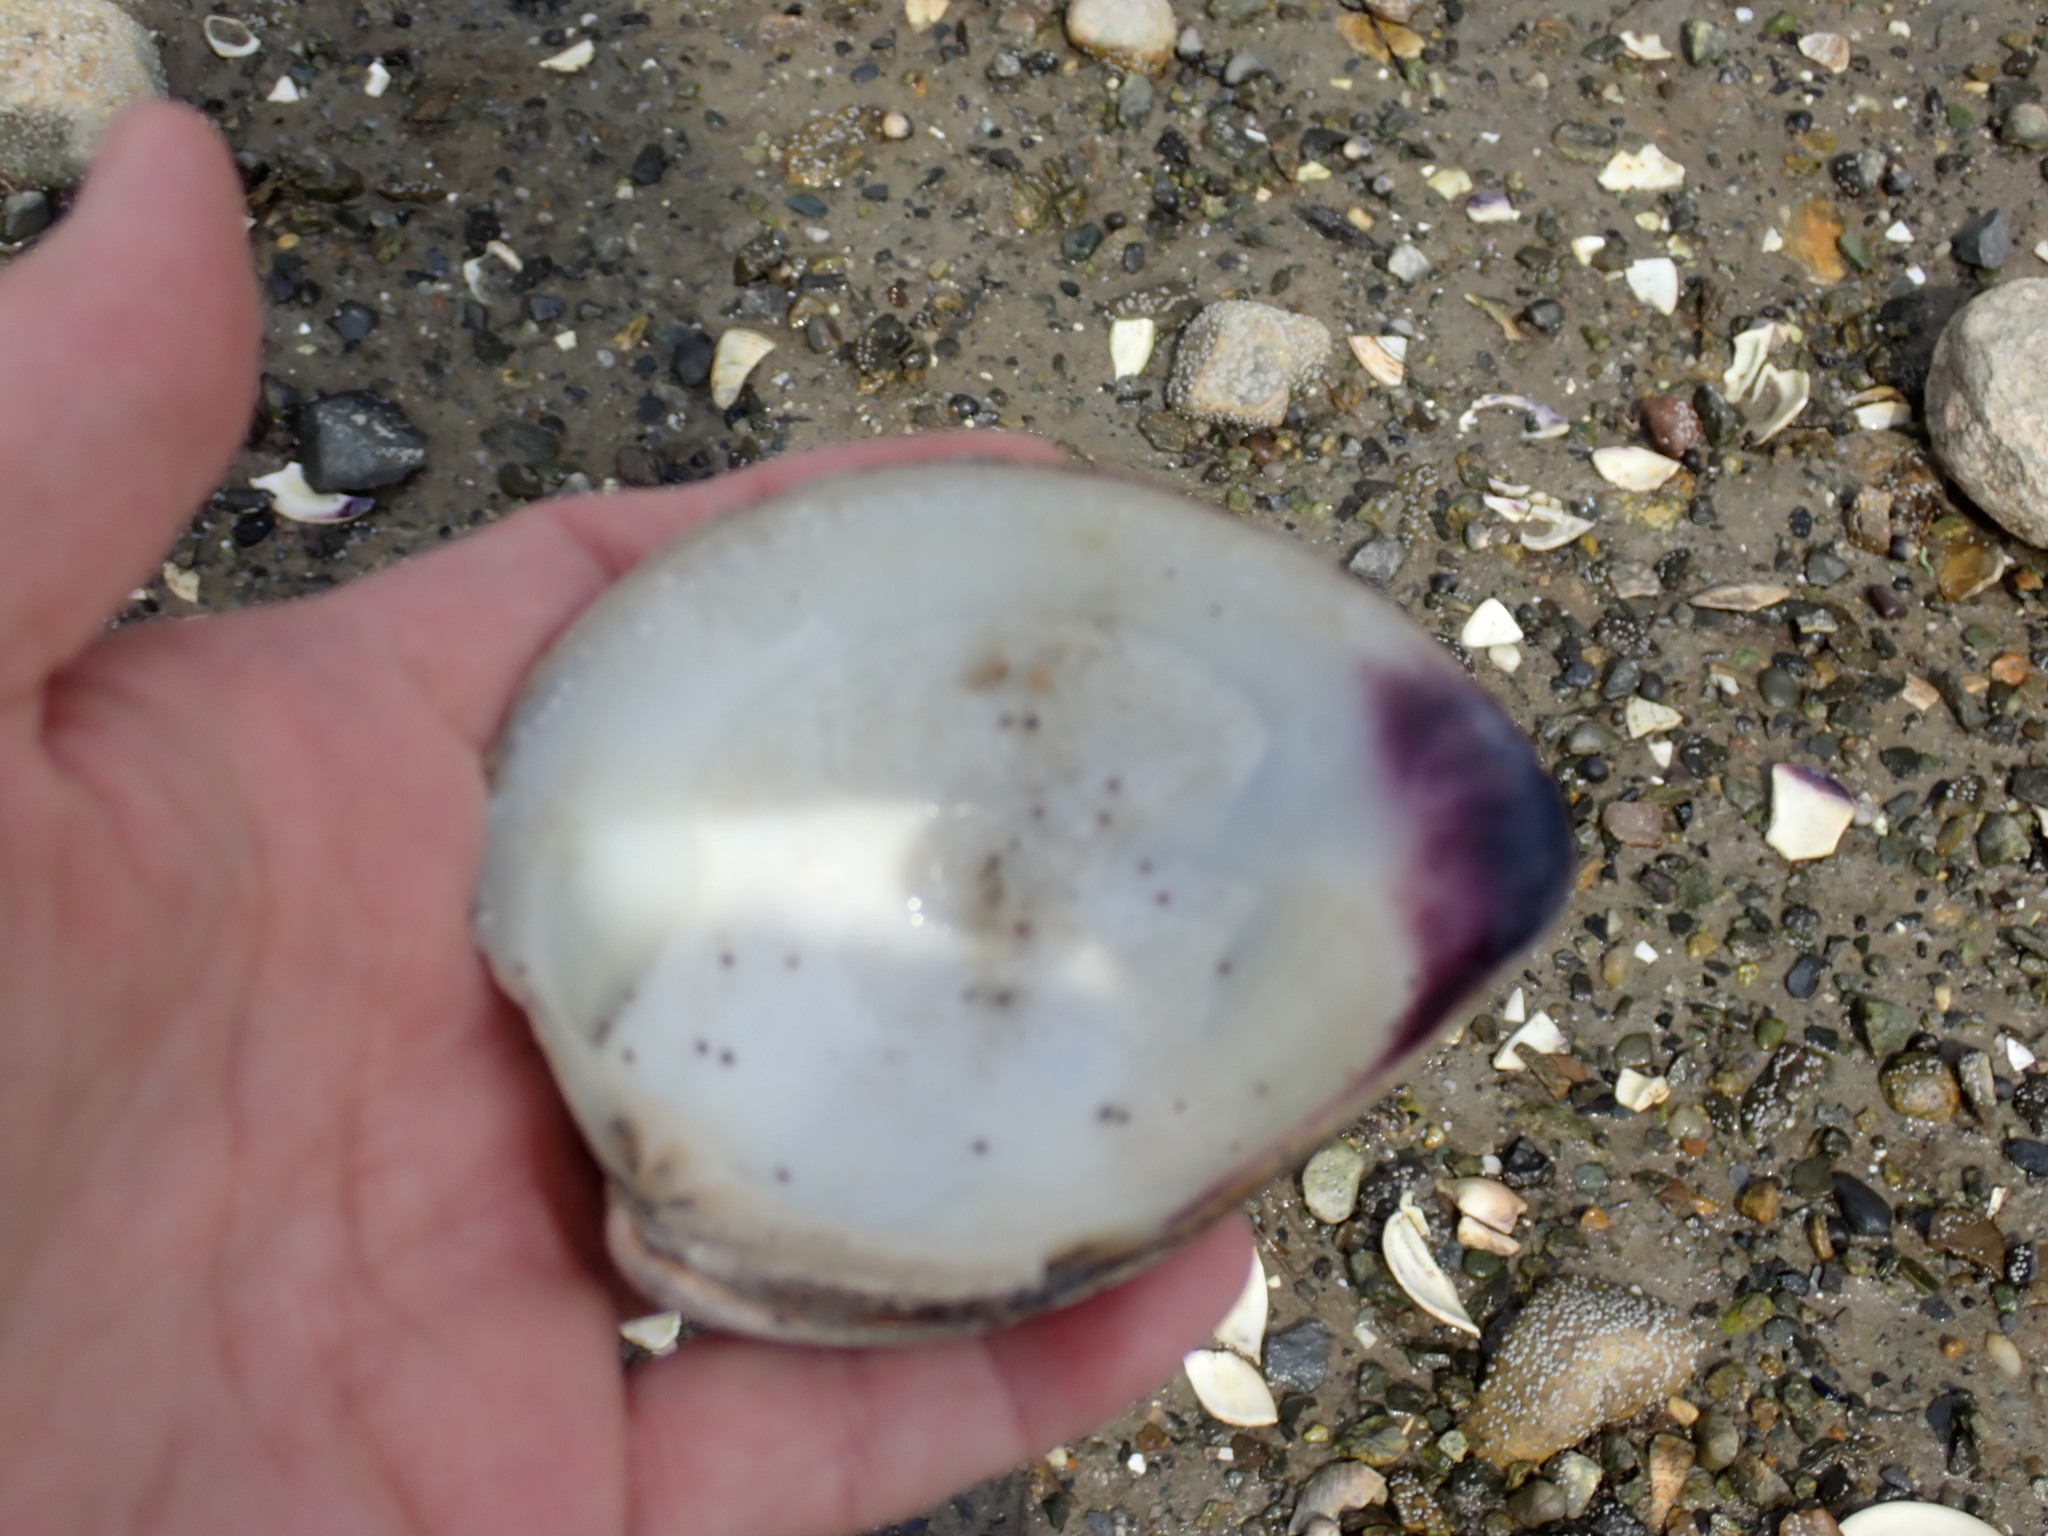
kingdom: Animalia
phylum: Mollusca
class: Bivalvia
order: Venerida
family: Veneridae
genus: Mercenaria
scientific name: Mercenaria mercenaria
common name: American hard-shelled clam
